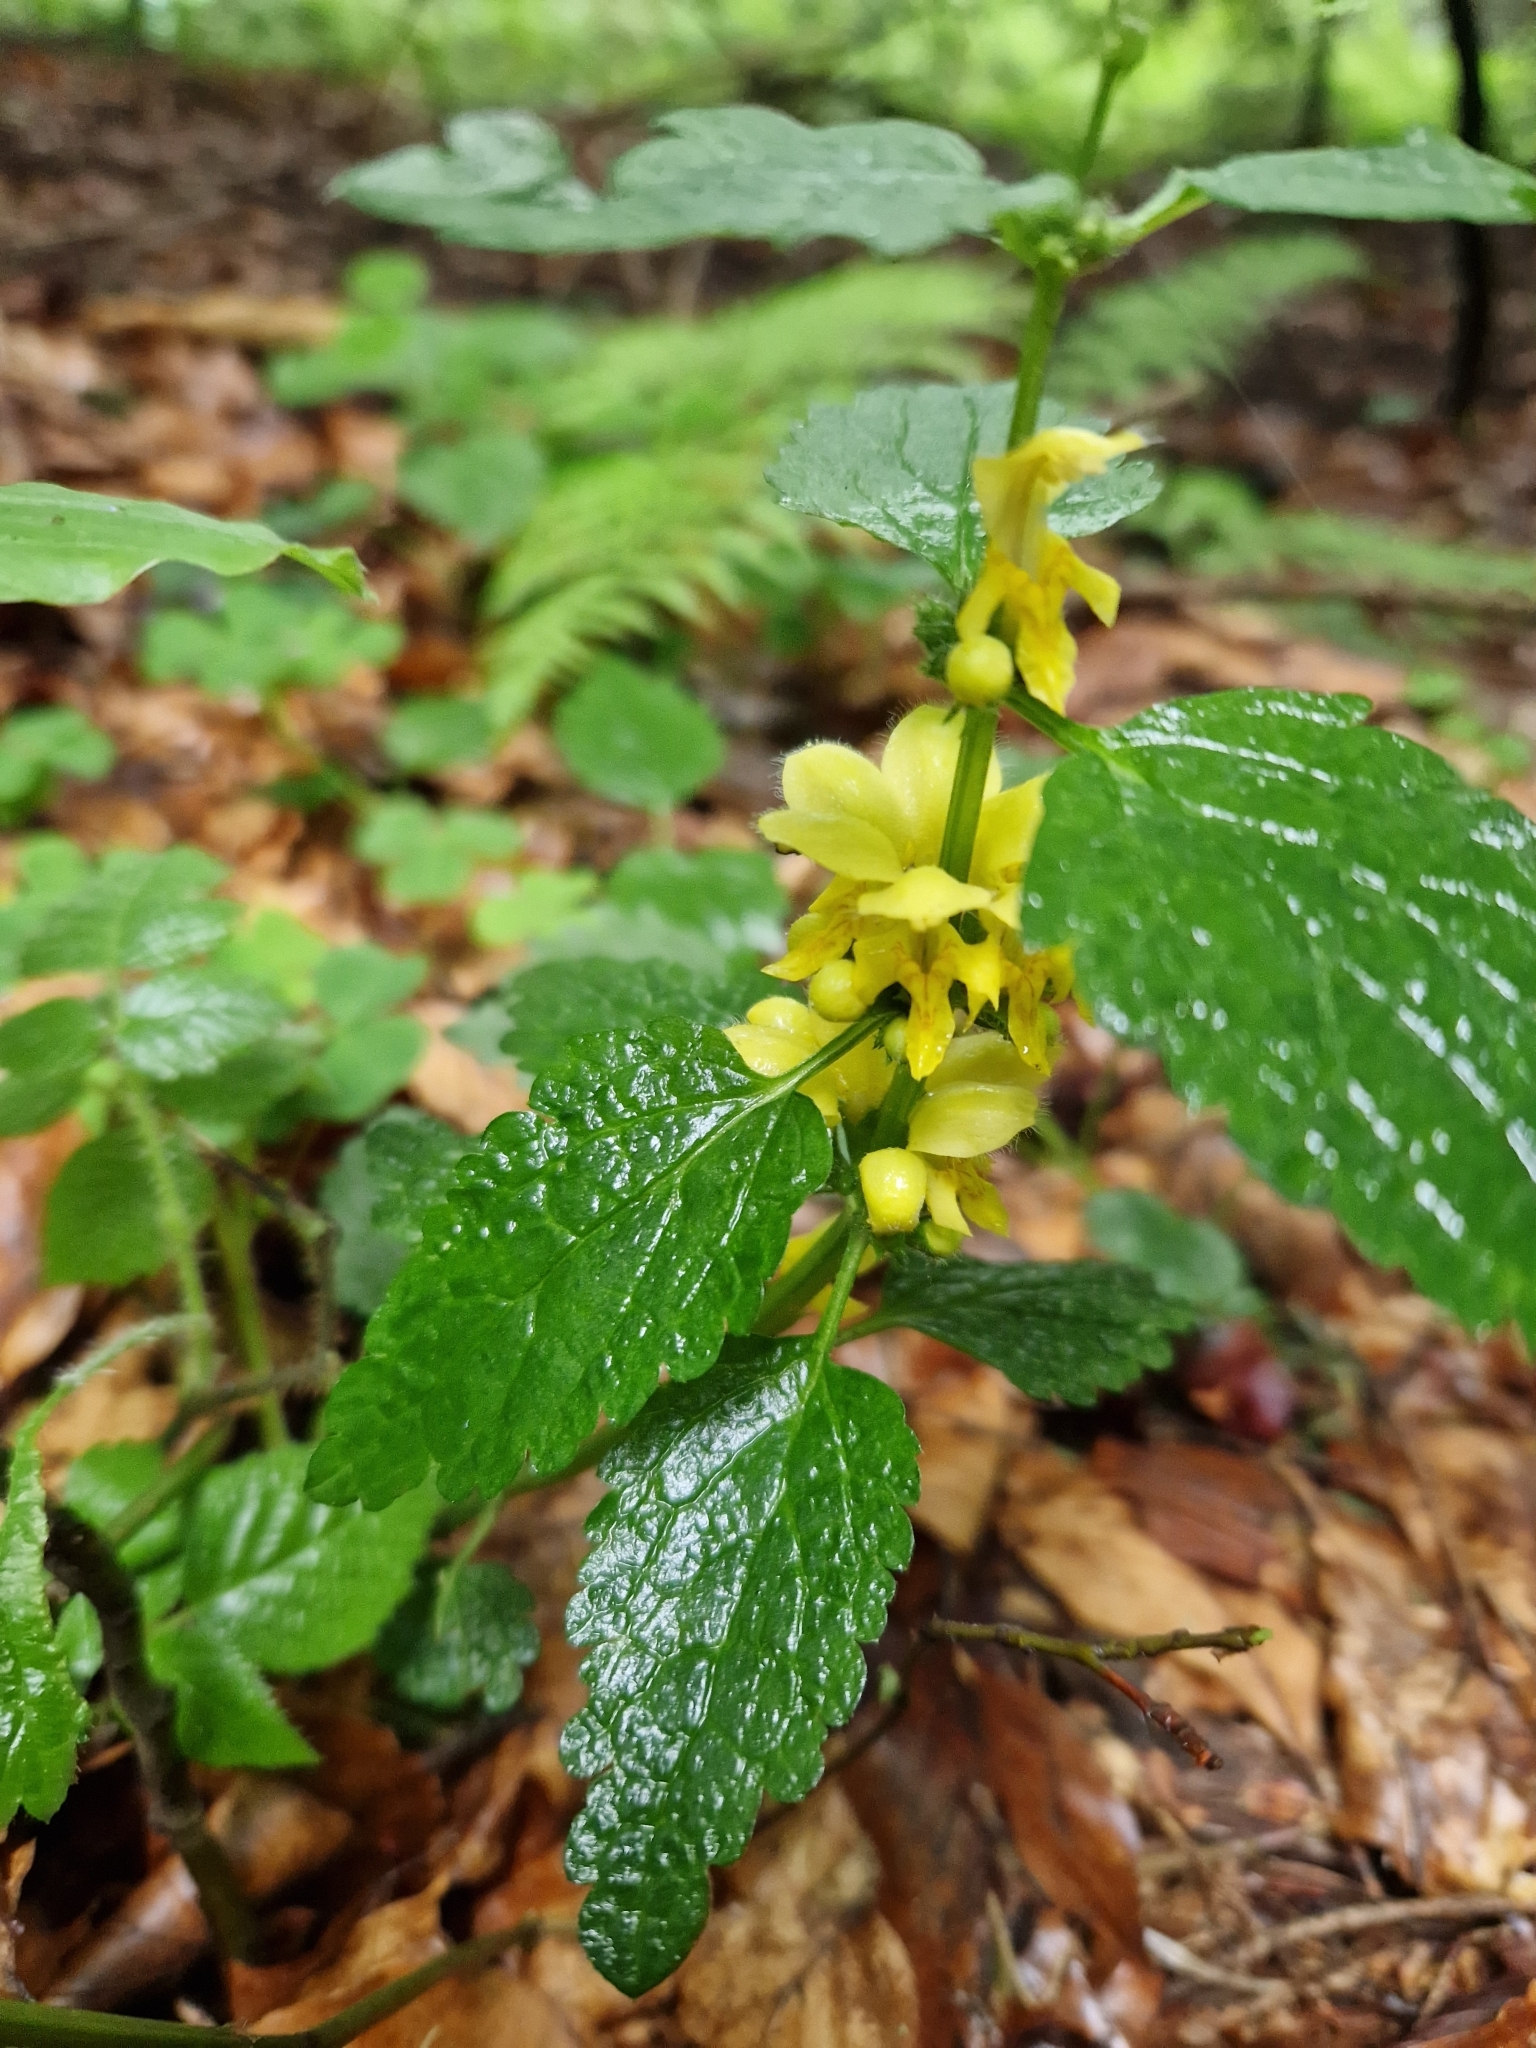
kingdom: Plantae
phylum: Tracheophyta
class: Magnoliopsida
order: Lamiales
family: Lamiaceae
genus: Lamium
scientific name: Lamium galeobdolon
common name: Yellow archangel
